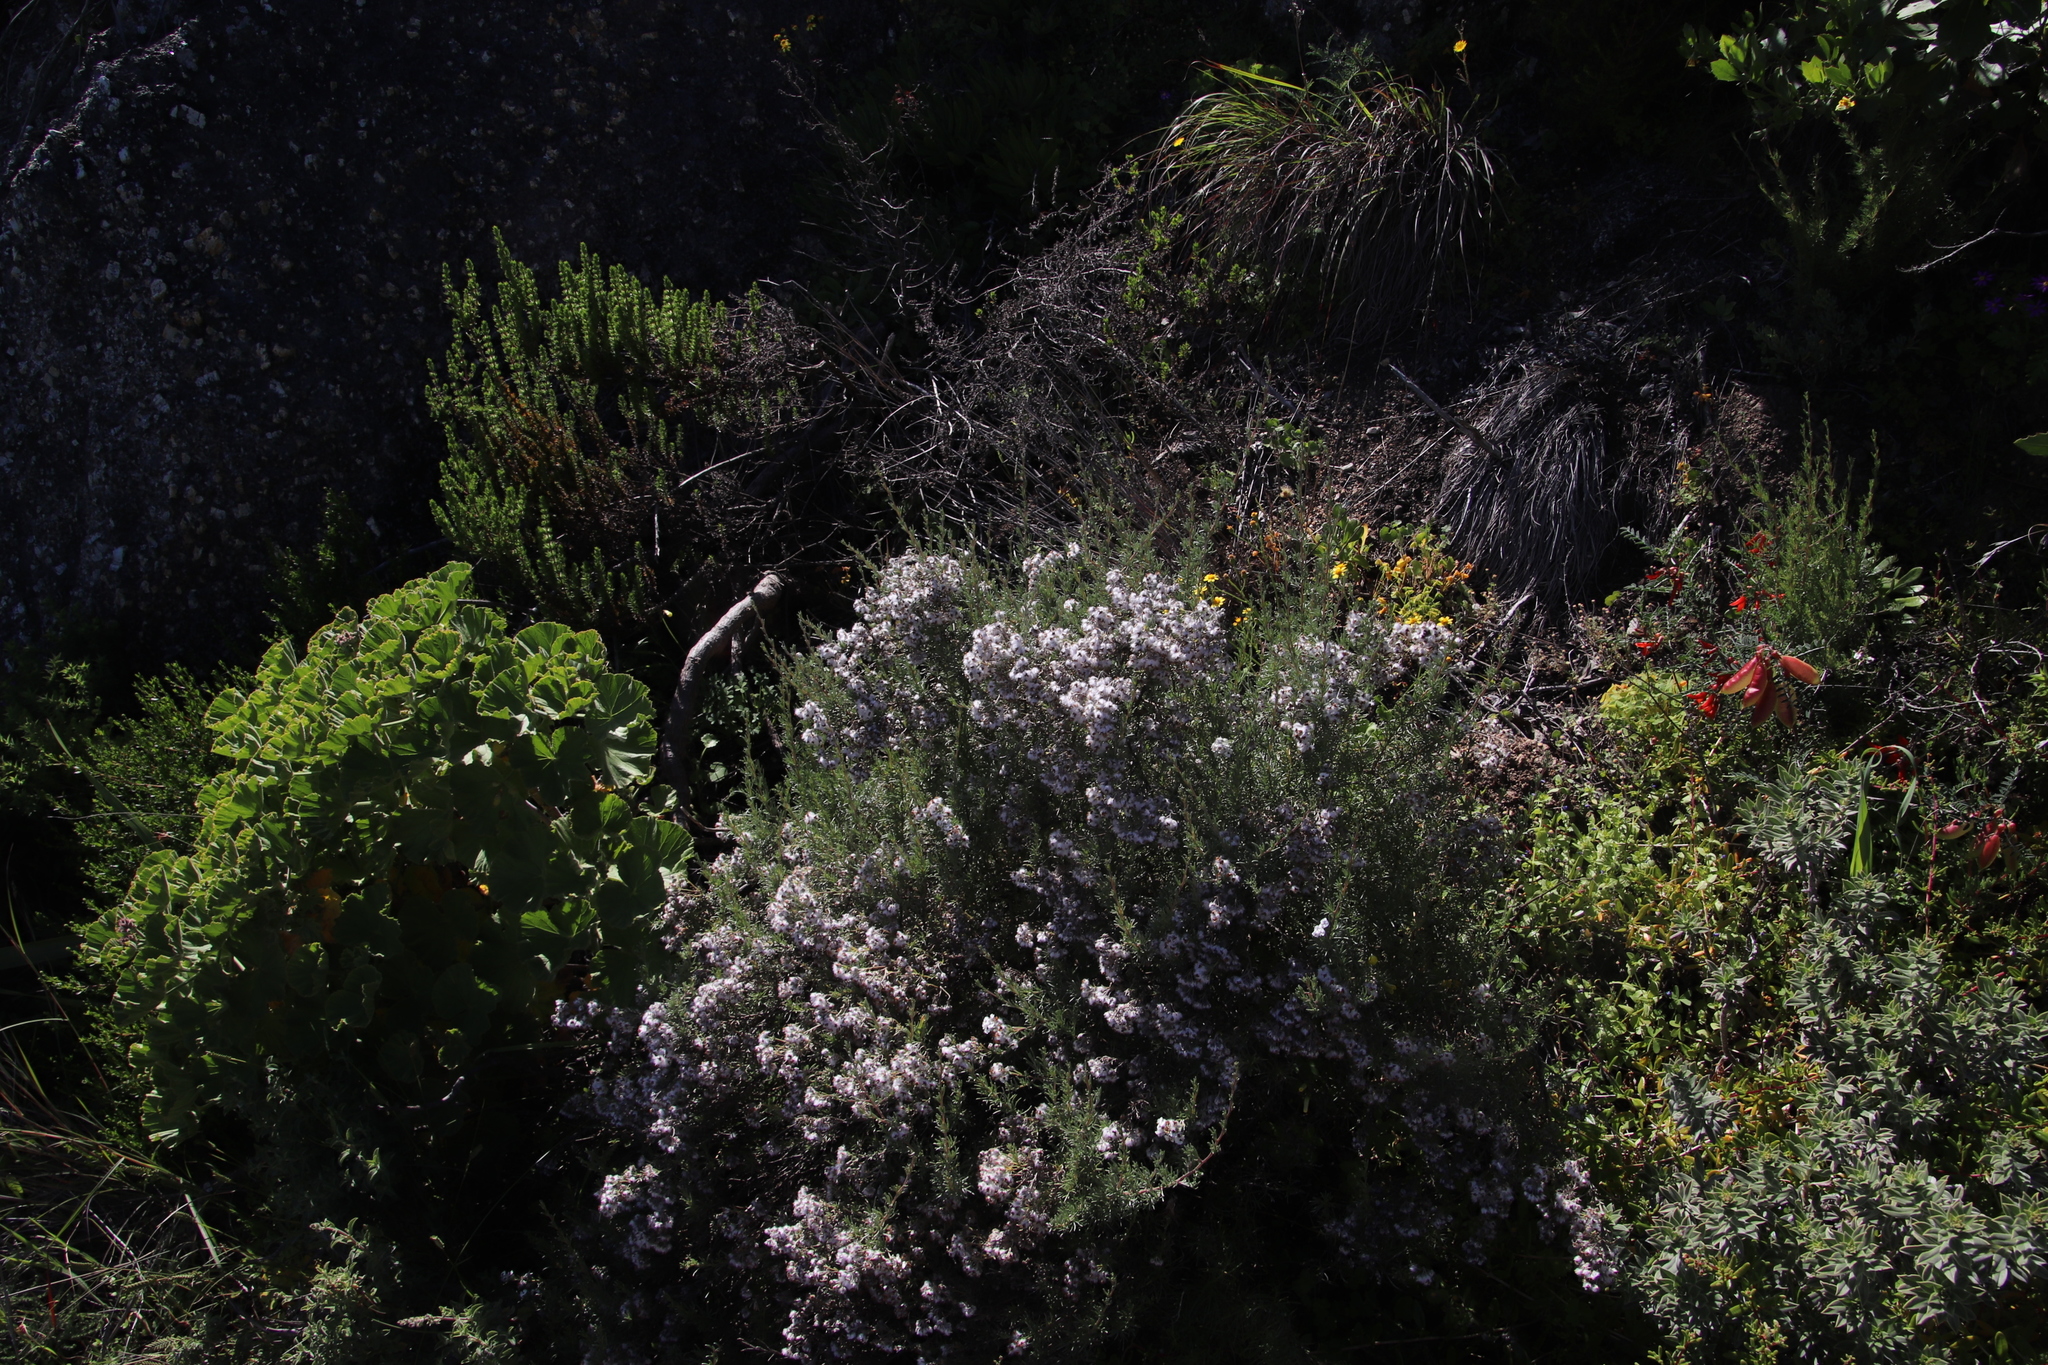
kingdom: Plantae
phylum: Tracheophyta
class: Magnoliopsida
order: Asterales
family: Asteraceae
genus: Eriocephalus
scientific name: Eriocephalus africanus
